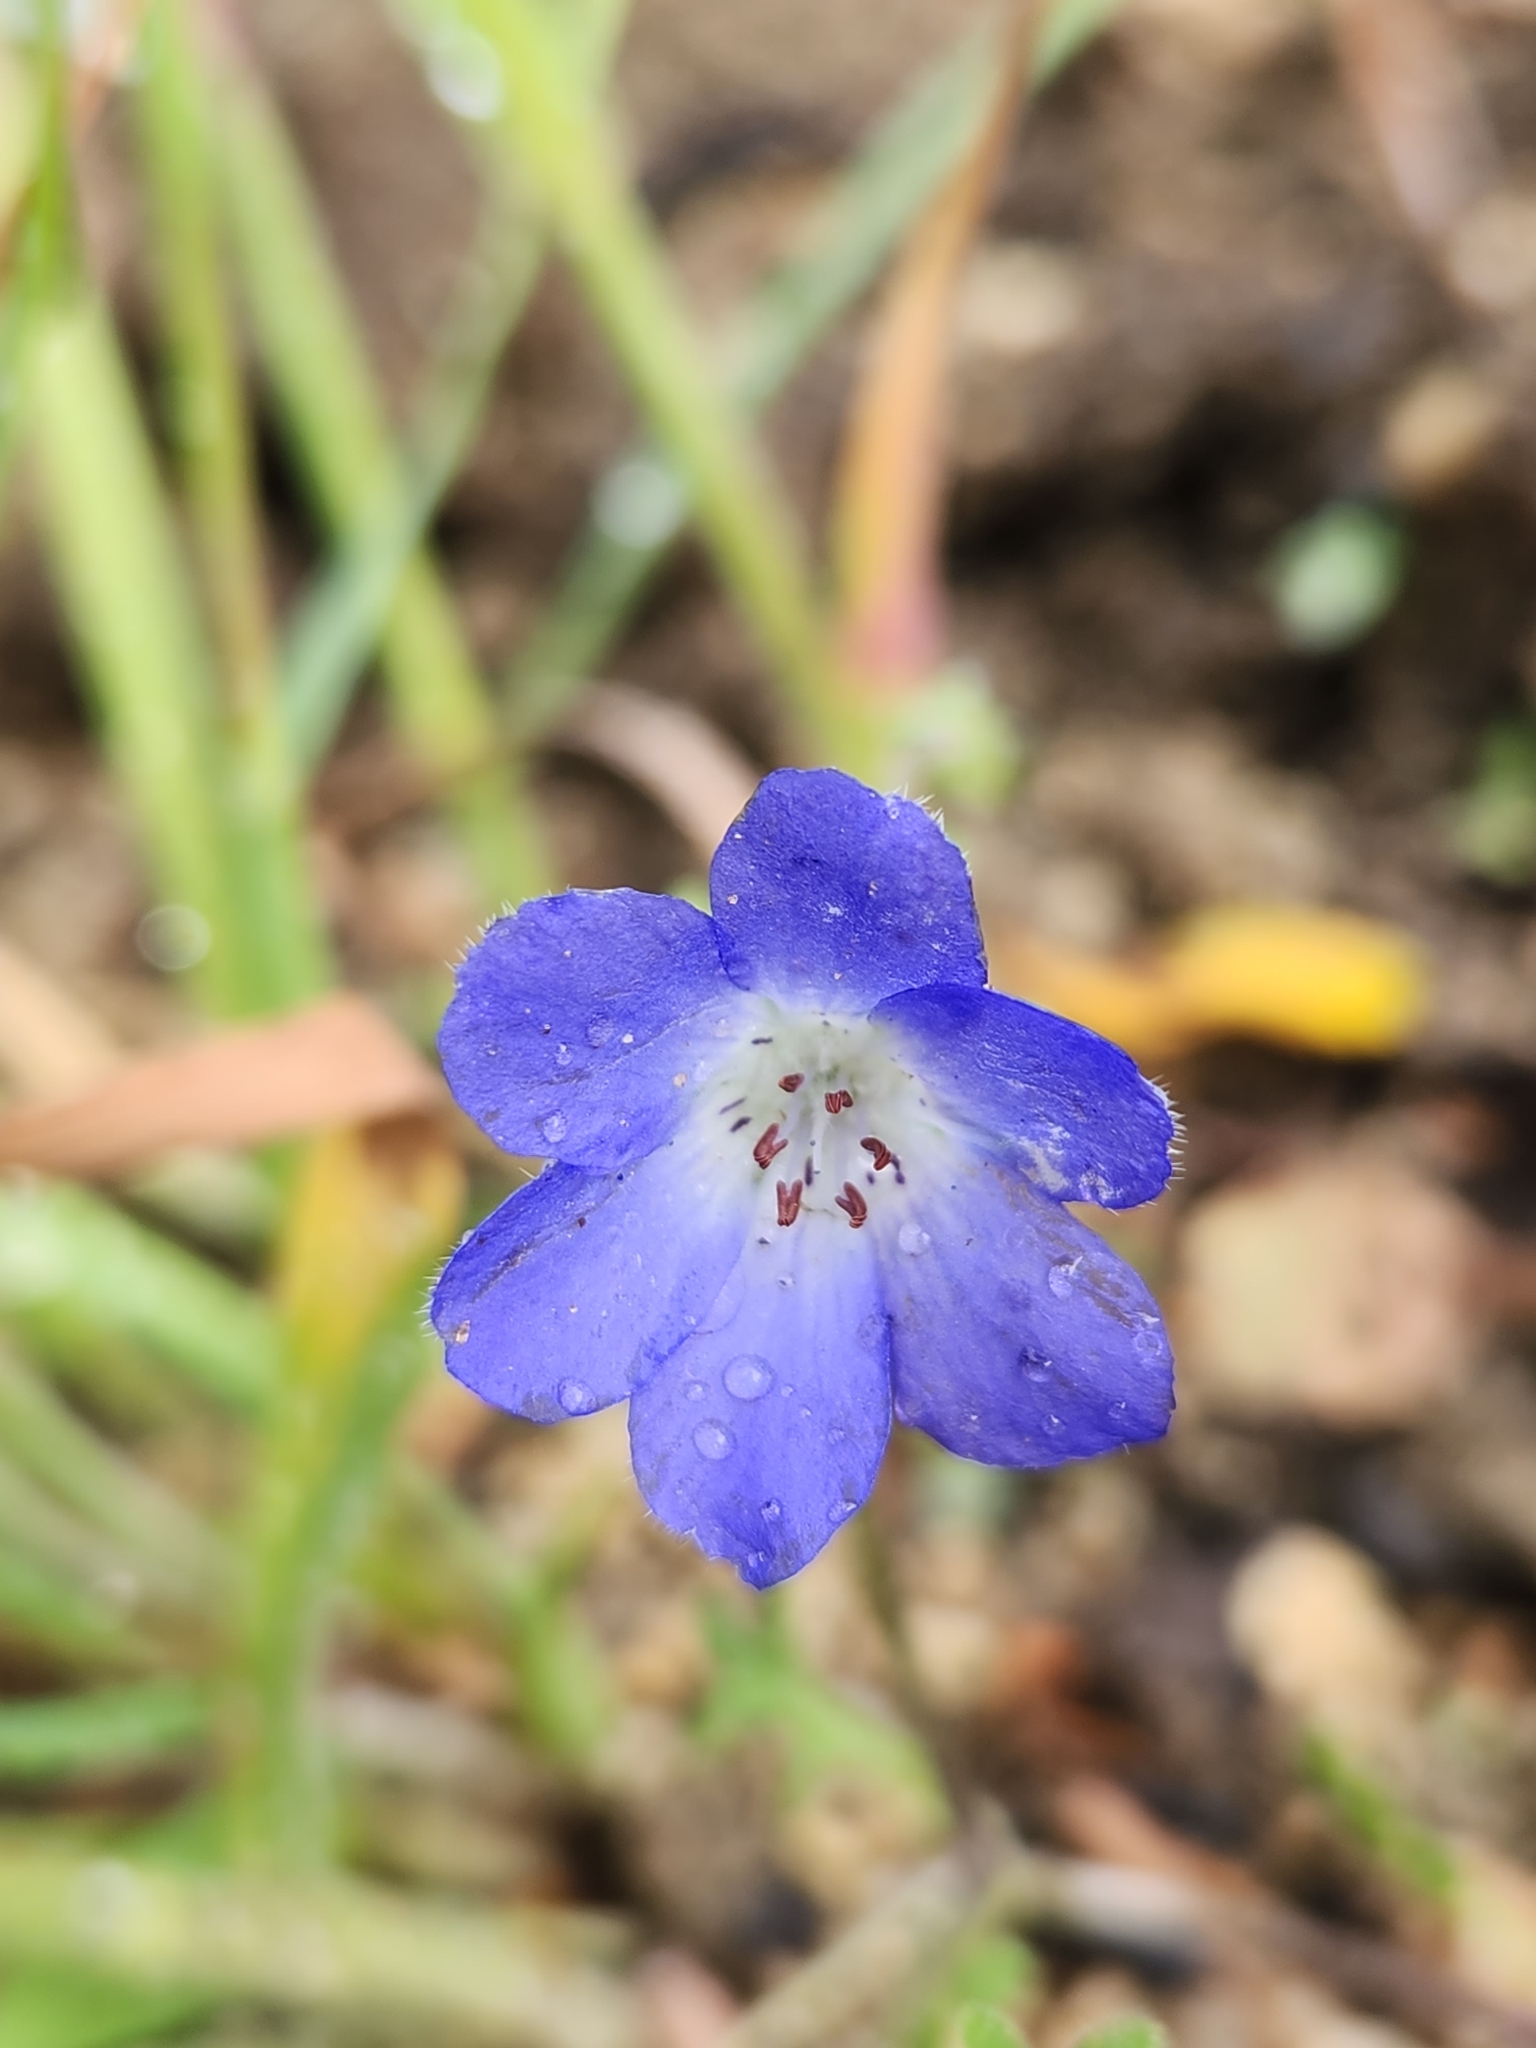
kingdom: Plantae
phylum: Tracheophyta
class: Magnoliopsida
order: Boraginales
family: Hydrophyllaceae
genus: Nemophila
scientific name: Nemophila menziesii
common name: Baby's-blue-eyes
